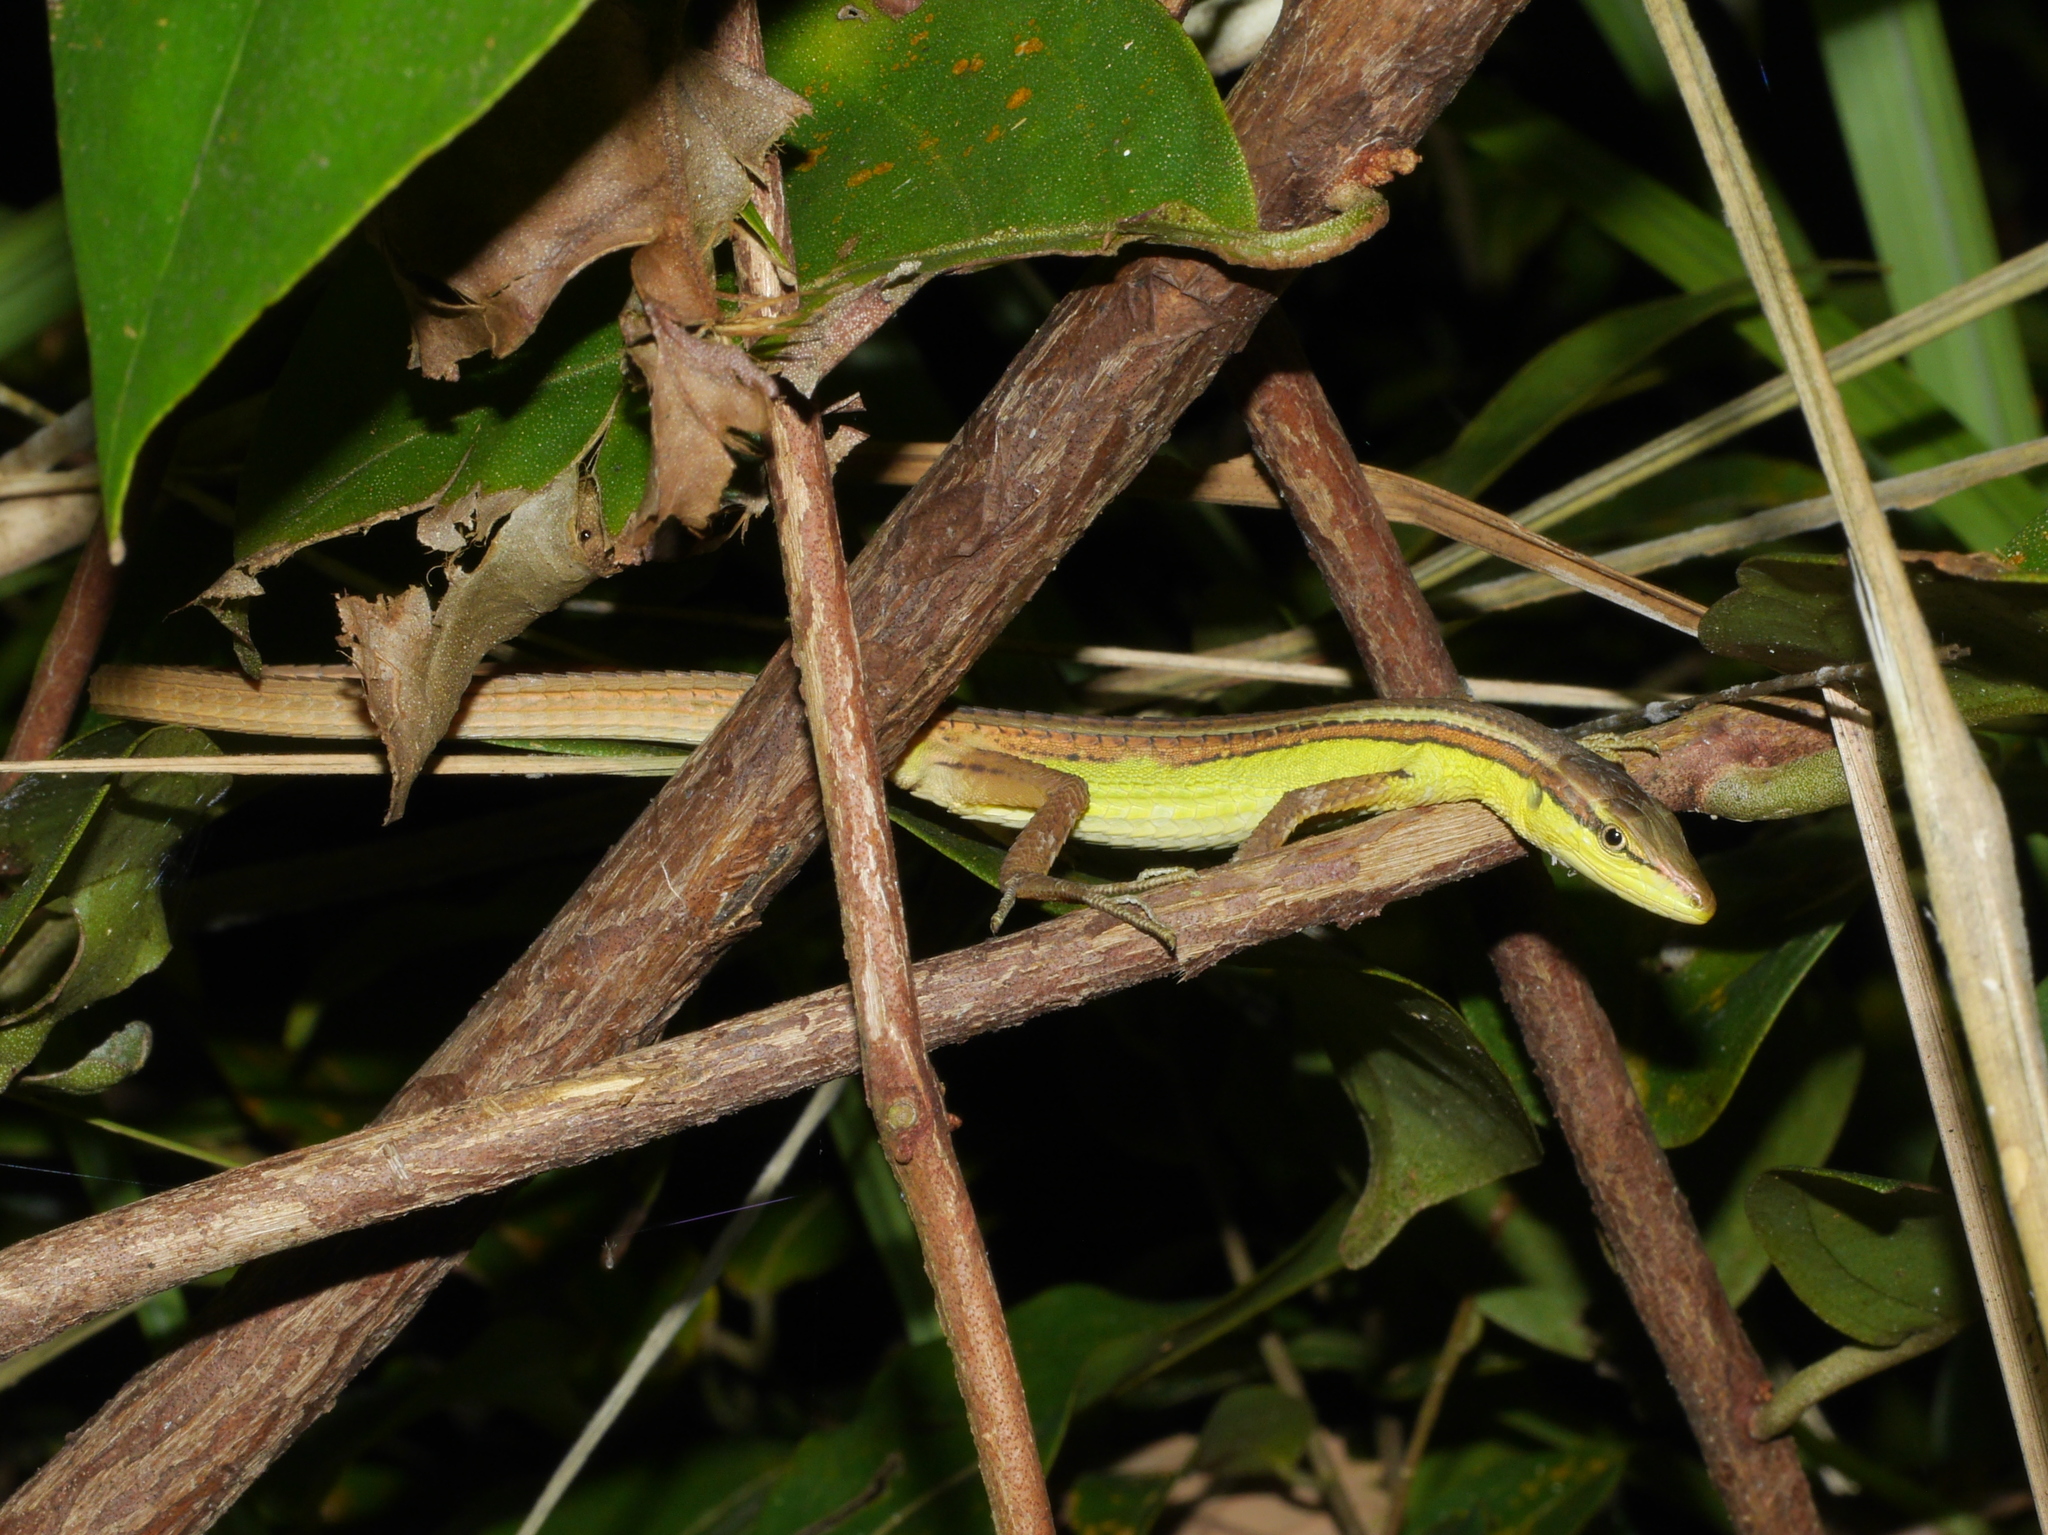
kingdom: Animalia
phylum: Chordata
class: Squamata
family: Lacertidae
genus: Takydromus
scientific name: Takydromus sexlineatus
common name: Asian grass lizard
